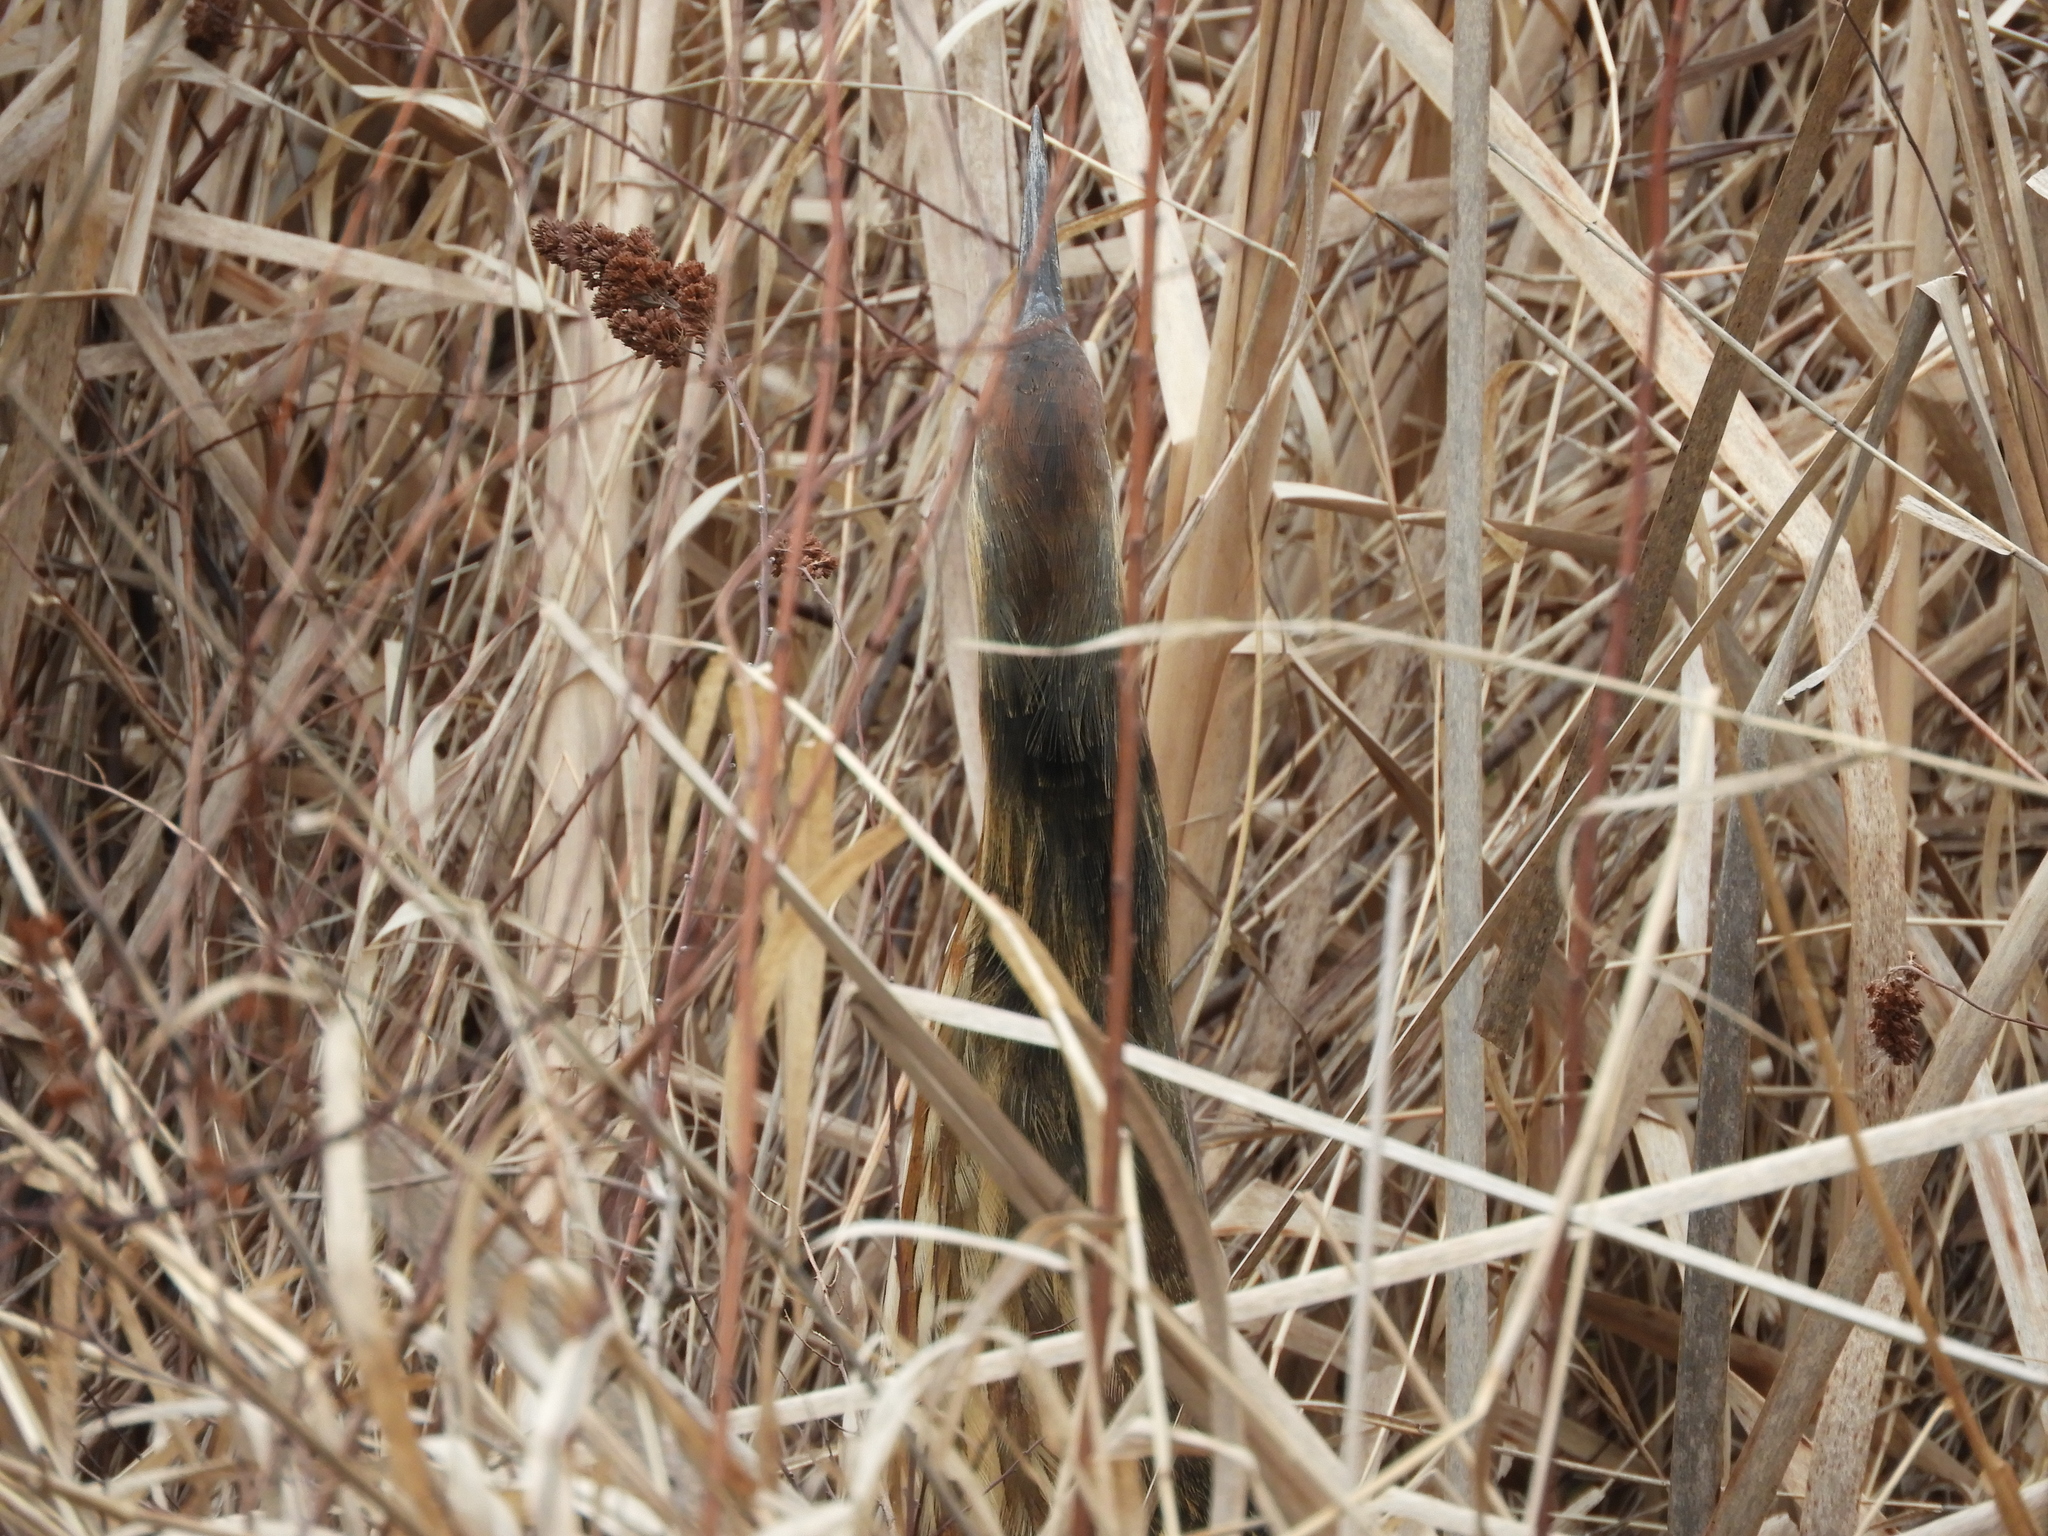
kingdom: Animalia
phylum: Chordata
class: Aves
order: Pelecaniformes
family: Ardeidae
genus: Botaurus
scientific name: Botaurus lentiginosus
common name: American bittern
